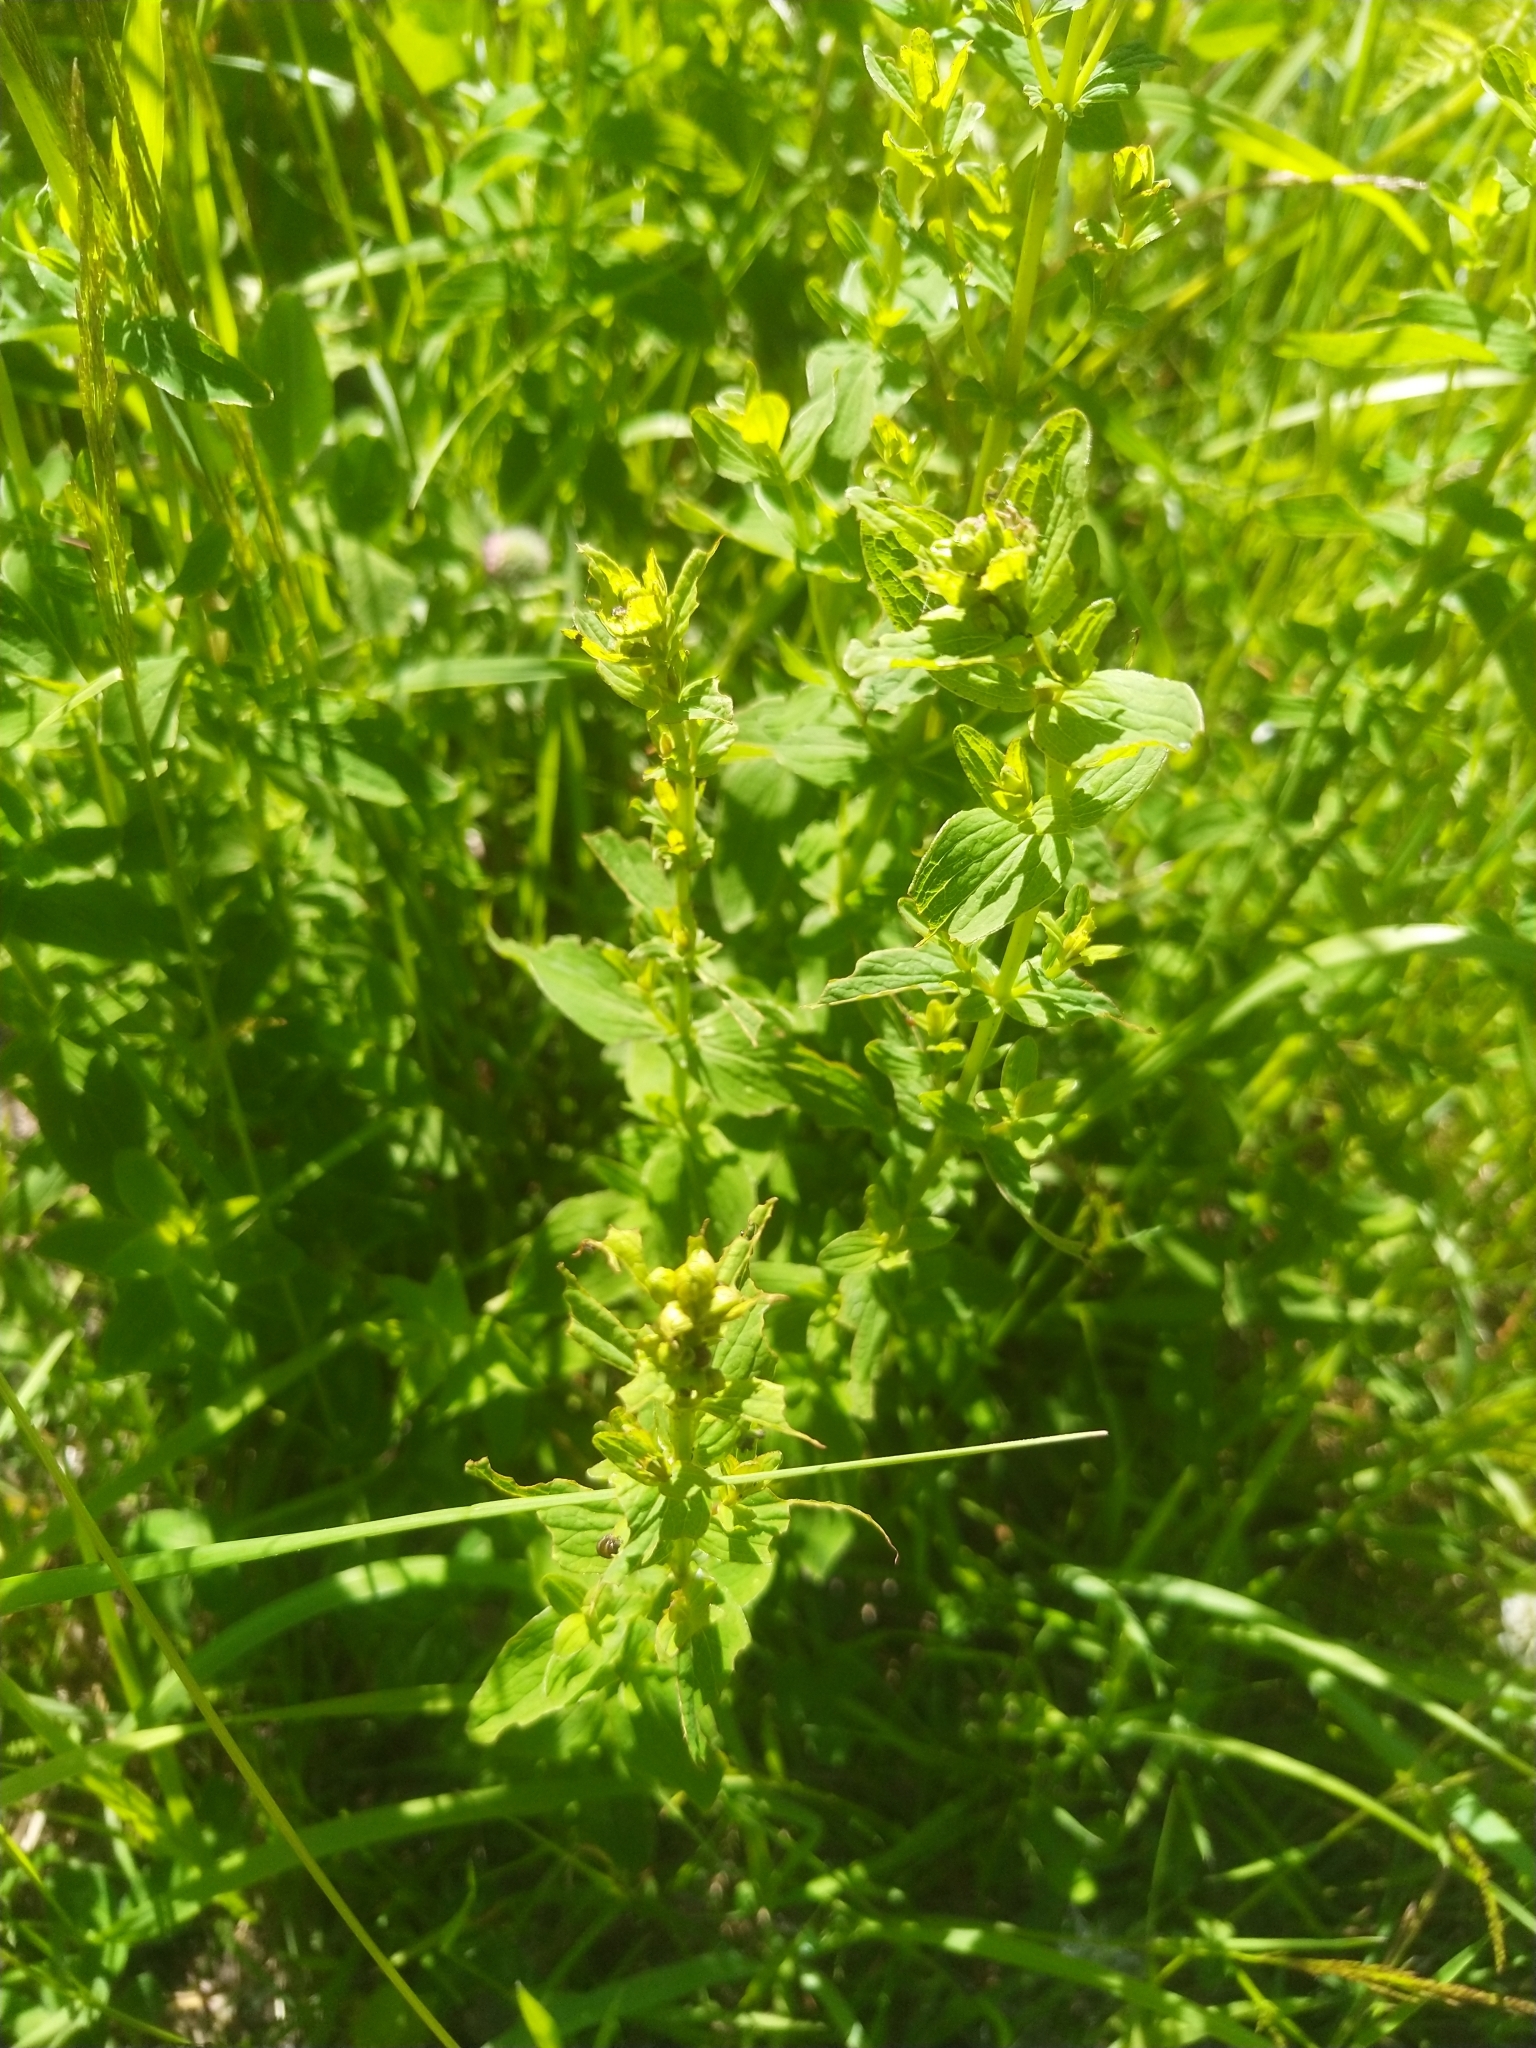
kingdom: Plantae
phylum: Tracheophyta
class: Magnoliopsida
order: Malpighiales
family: Hypericaceae
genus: Hypericum
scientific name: Hypericum maculatum
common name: Imperforate st. john's-wort
